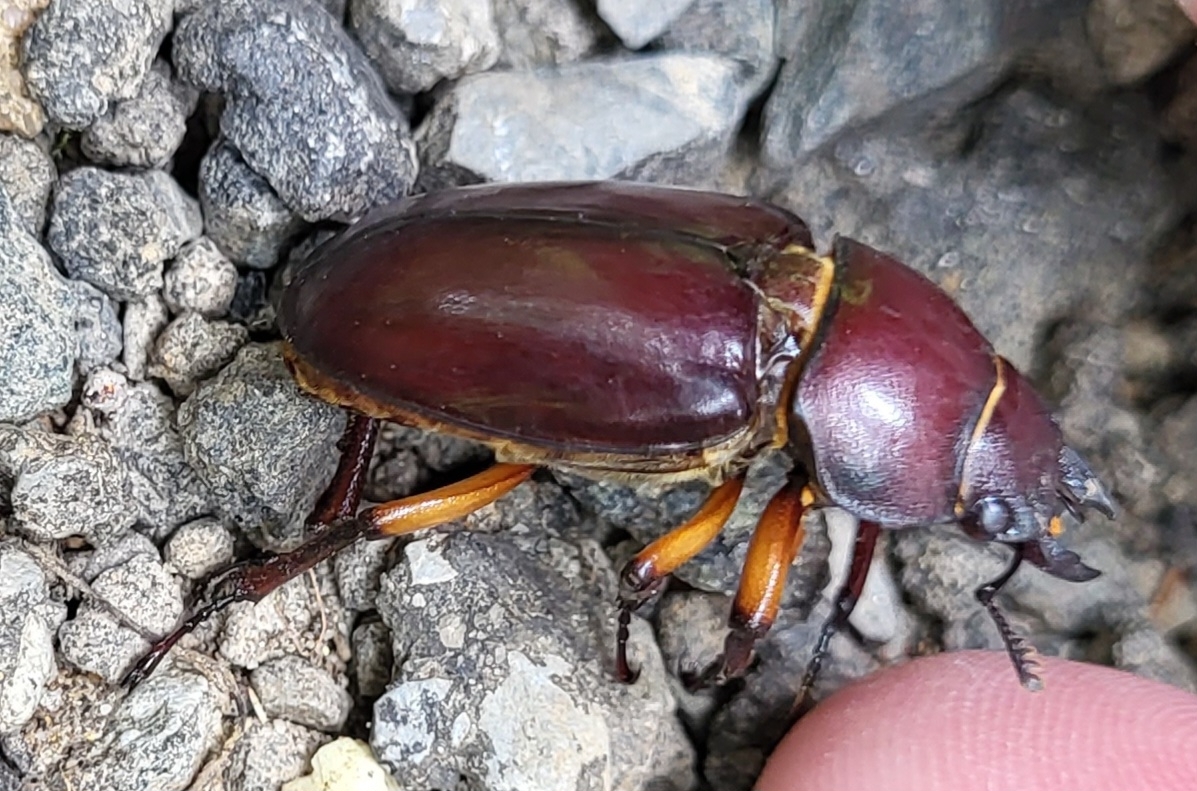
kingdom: Animalia
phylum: Arthropoda
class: Insecta
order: Coleoptera
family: Lucanidae
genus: Lucanus
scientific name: Lucanus capreolus
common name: Stag beetle
